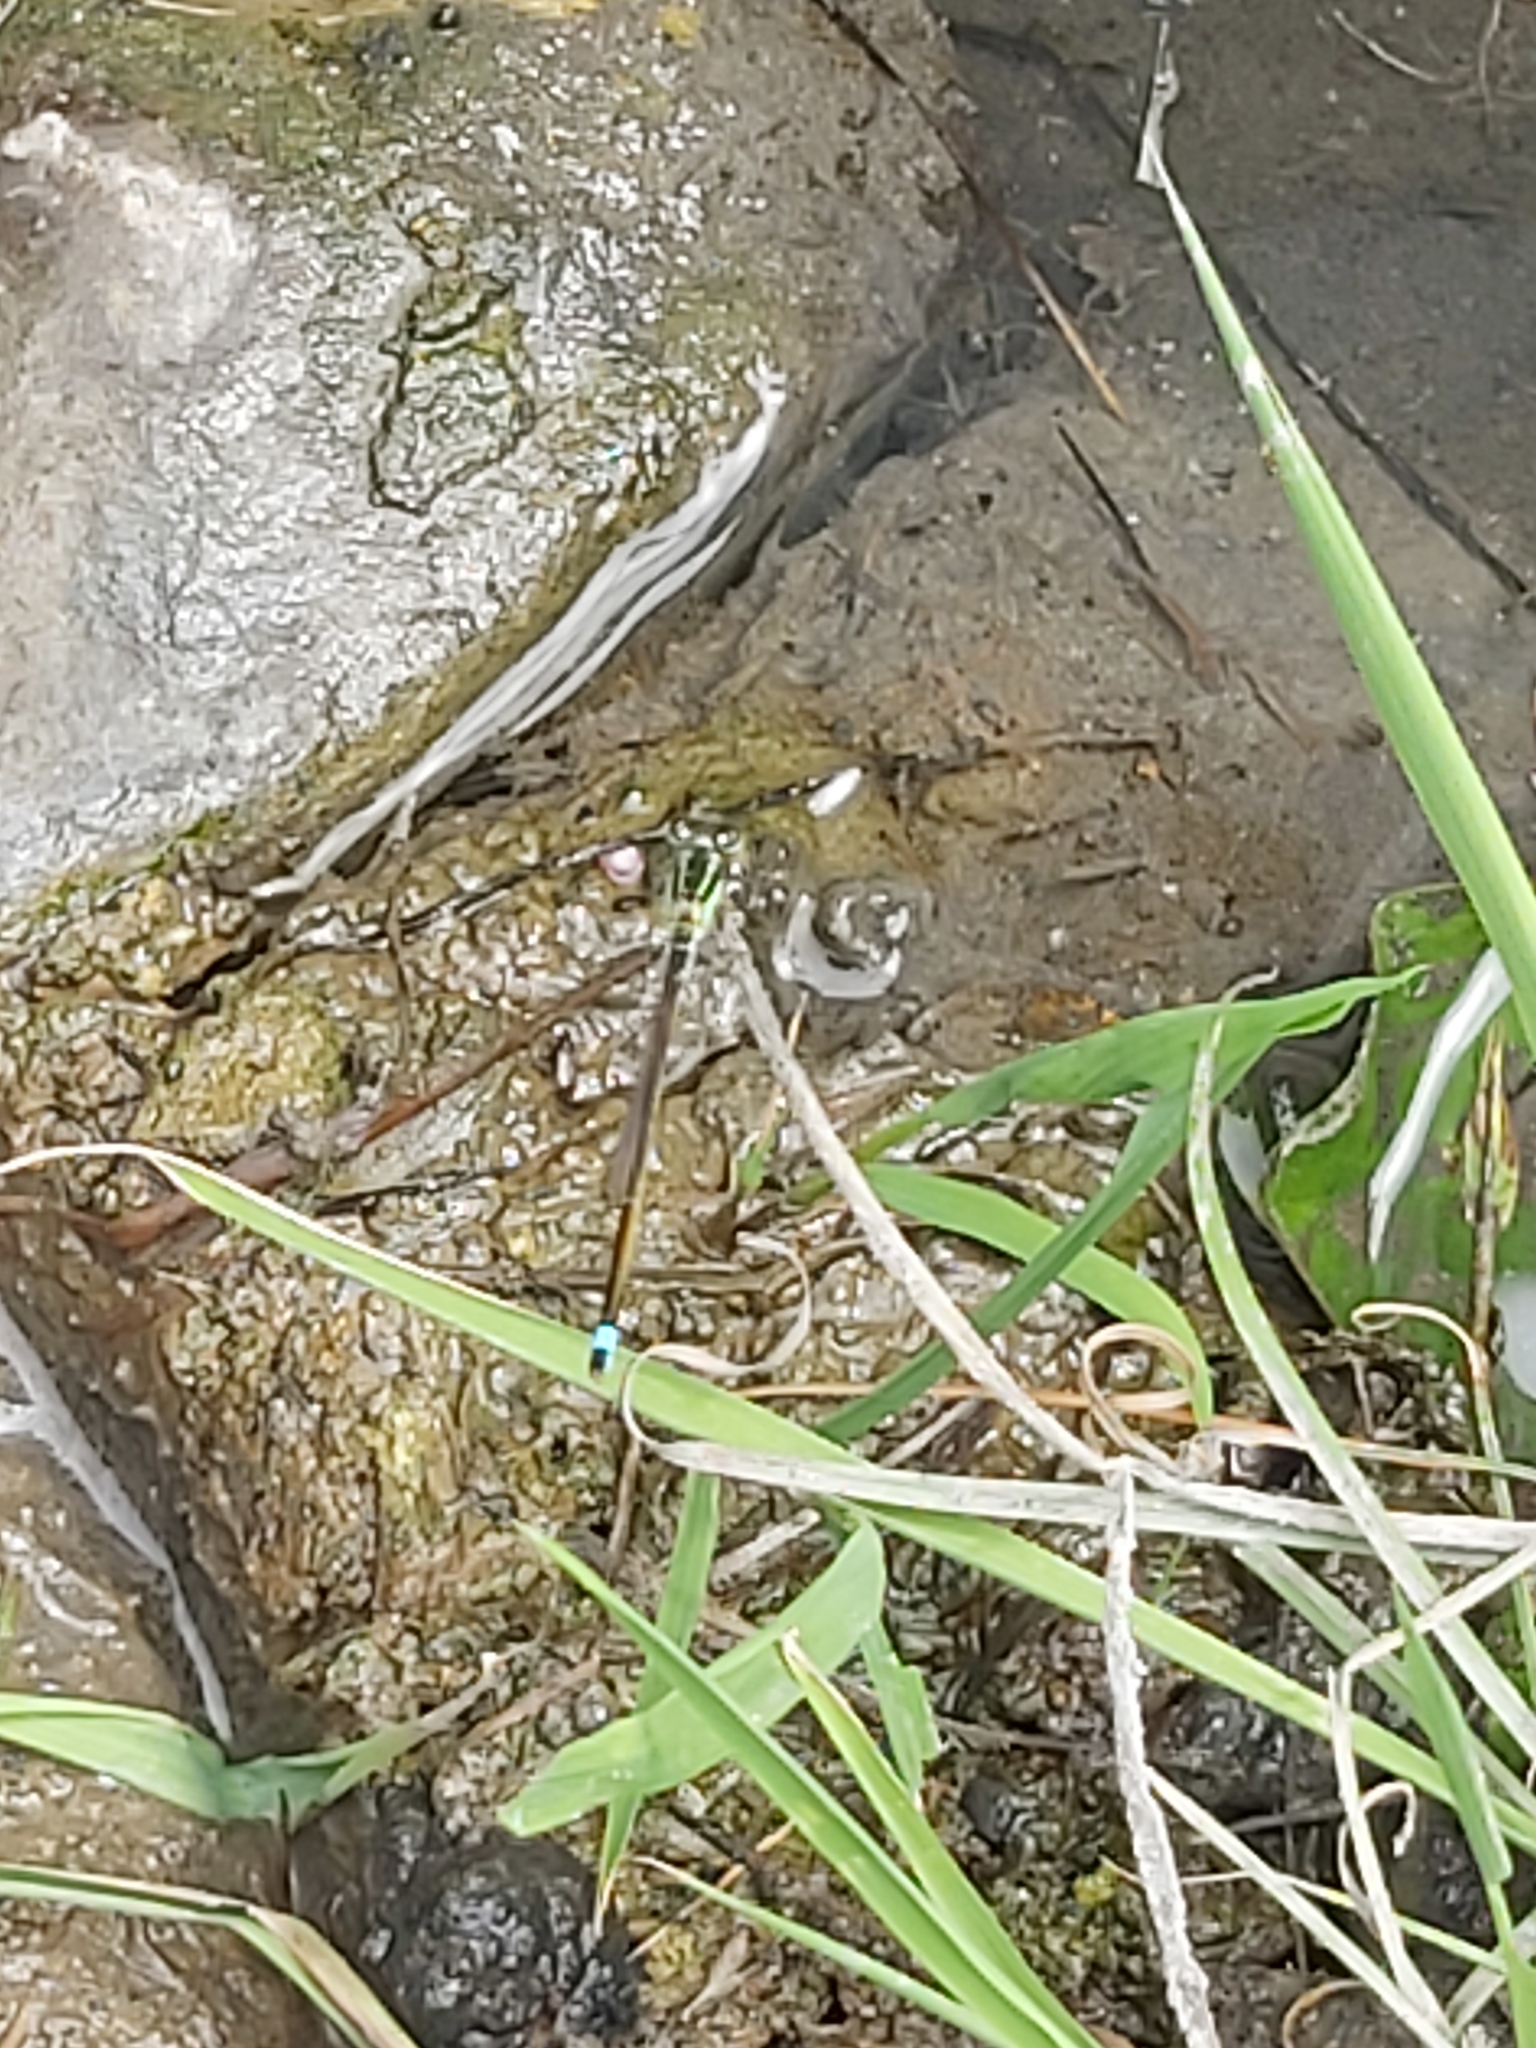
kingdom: Animalia
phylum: Arthropoda
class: Insecta
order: Odonata
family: Coenagrionidae
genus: Ischnura
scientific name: Ischnura senegalensis
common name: Tropical bluetail
